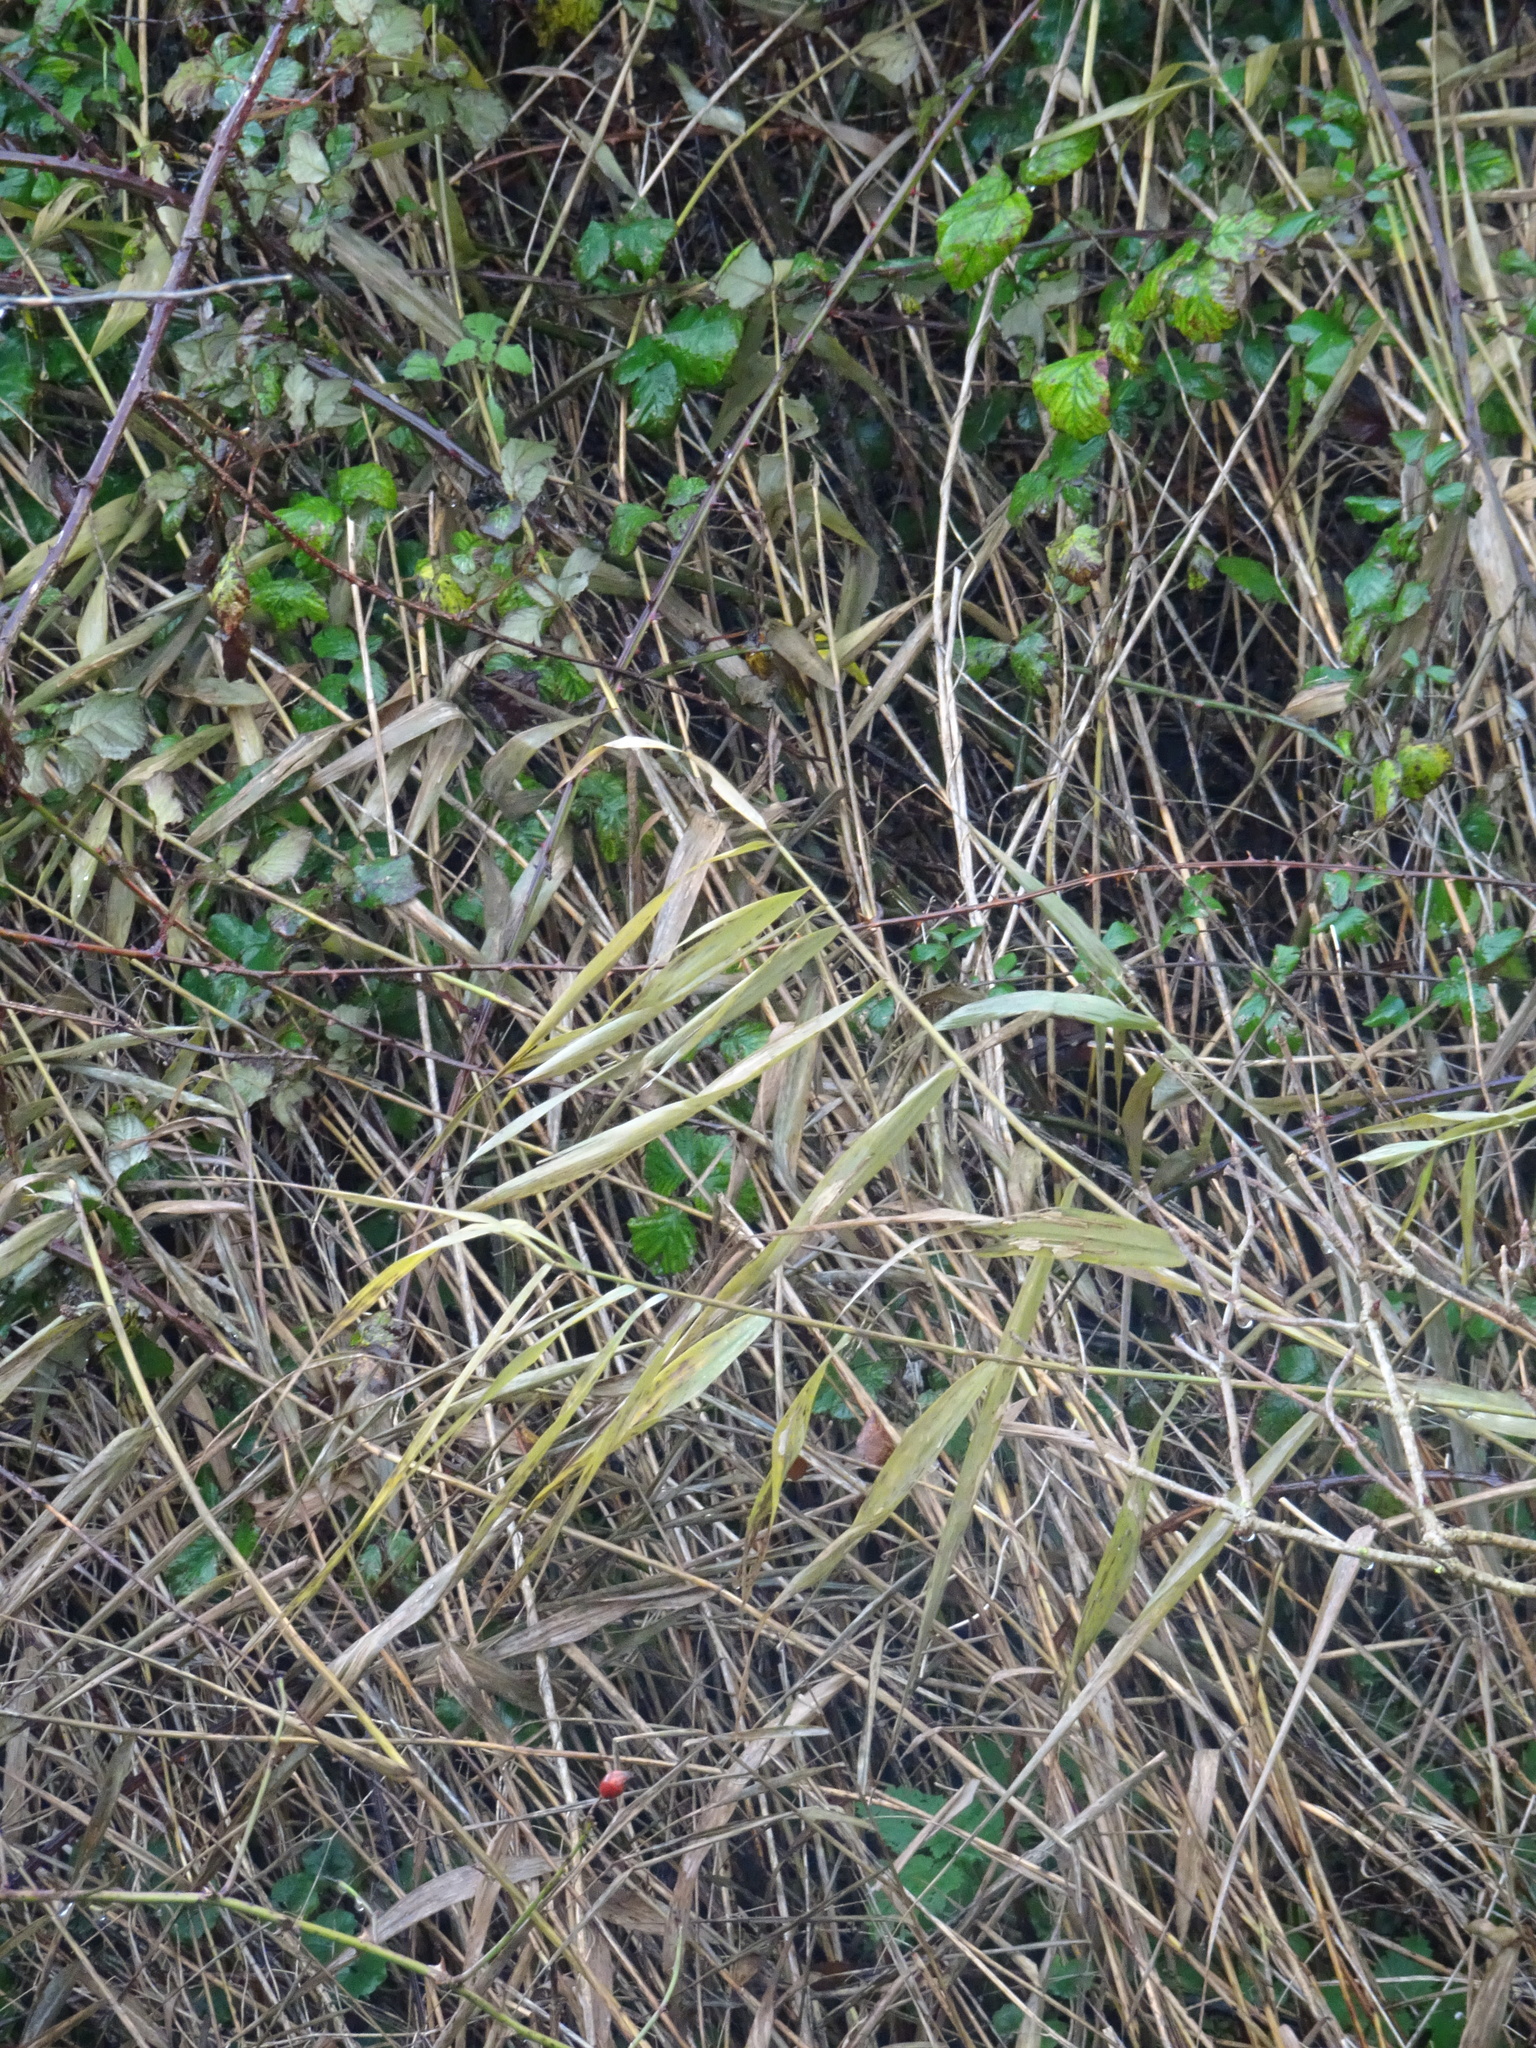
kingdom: Plantae
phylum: Tracheophyta
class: Liliopsida
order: Poales
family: Poaceae
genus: Phragmites
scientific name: Phragmites australis
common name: Common reed
